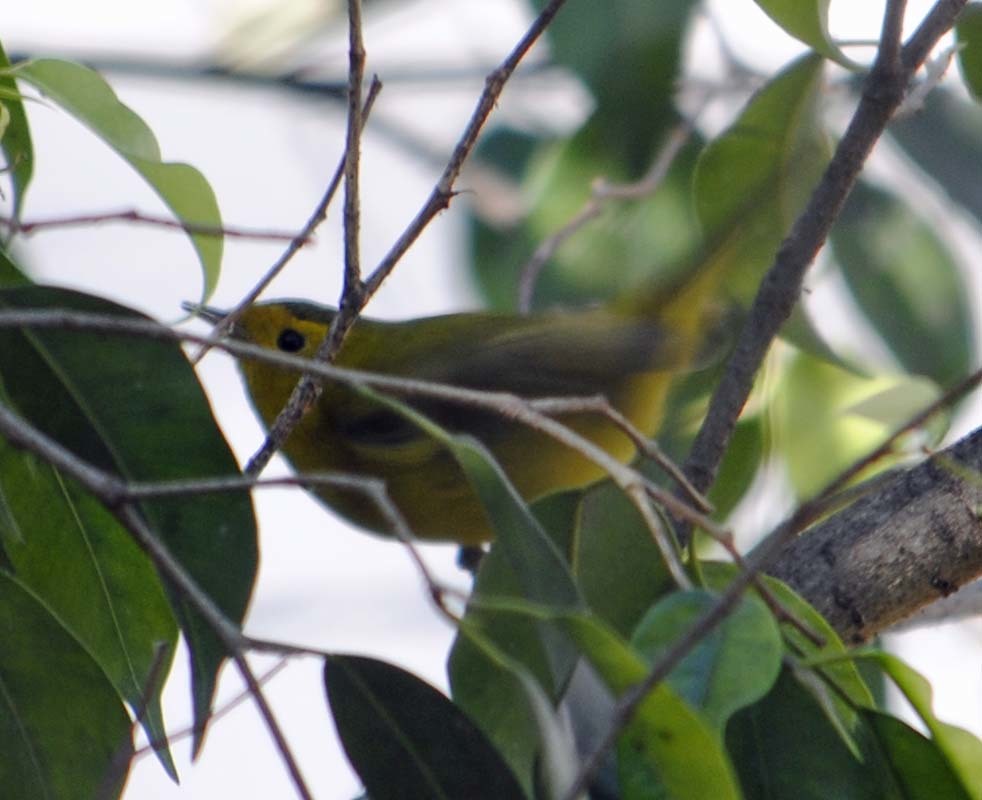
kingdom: Animalia
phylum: Chordata
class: Aves
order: Passeriformes
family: Parulidae
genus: Cardellina
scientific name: Cardellina pusilla
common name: Wilson's warbler
